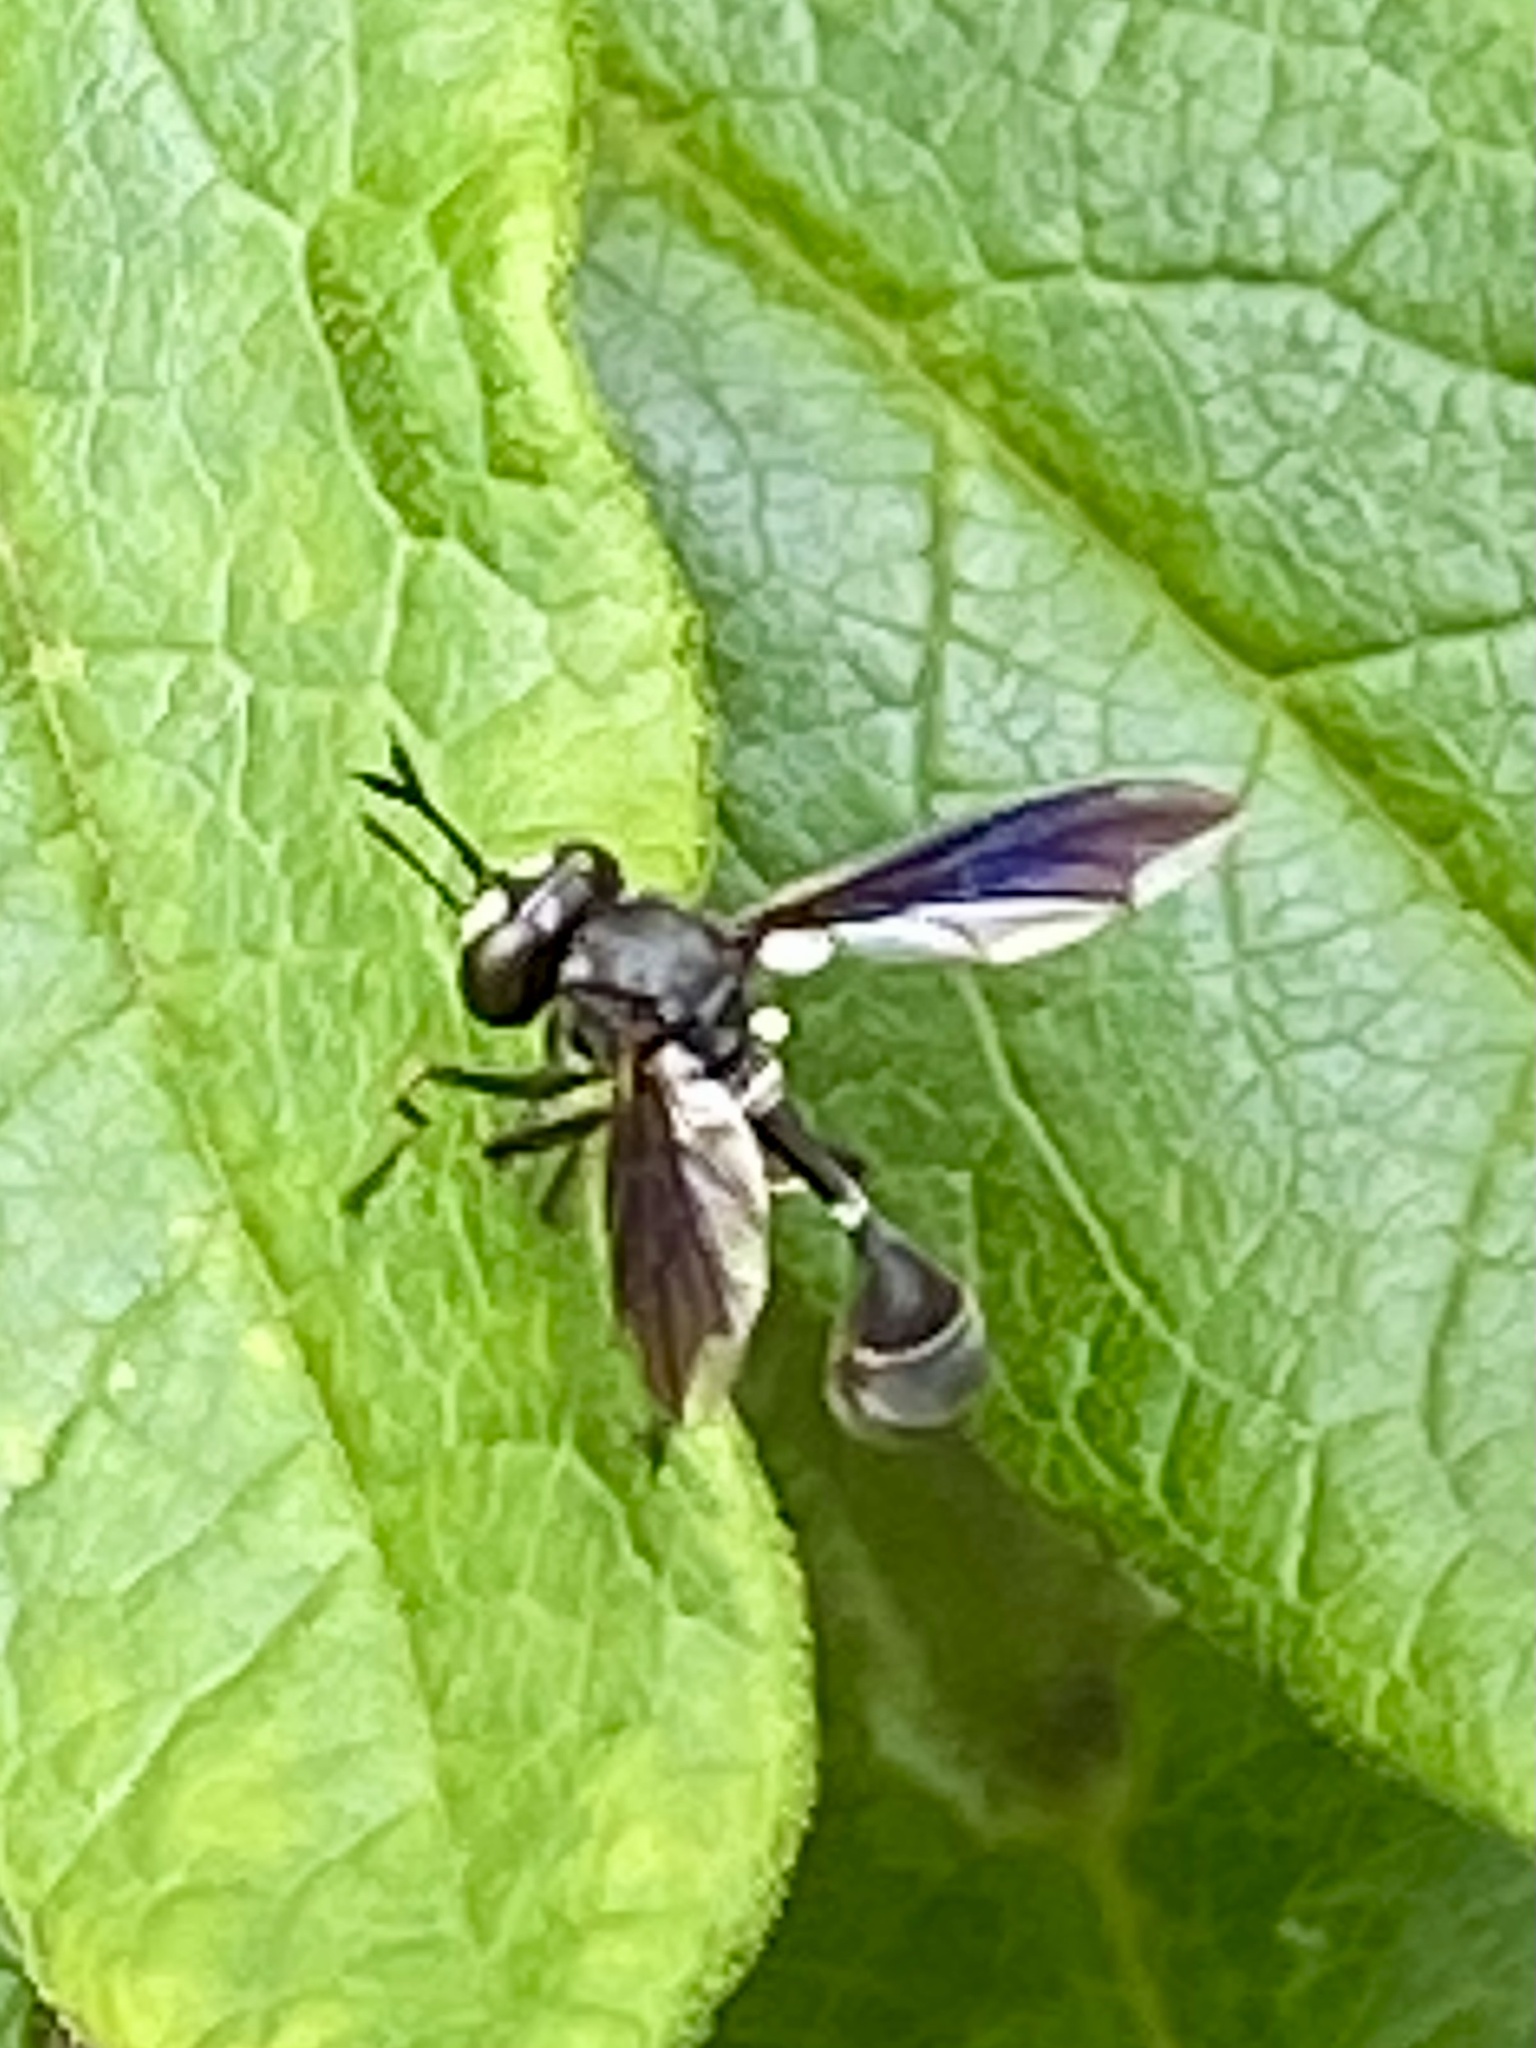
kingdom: Animalia
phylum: Arthropoda
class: Insecta
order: Diptera
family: Conopidae
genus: Physocephala
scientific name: Physocephala tibialis
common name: Common eastern physocephala
